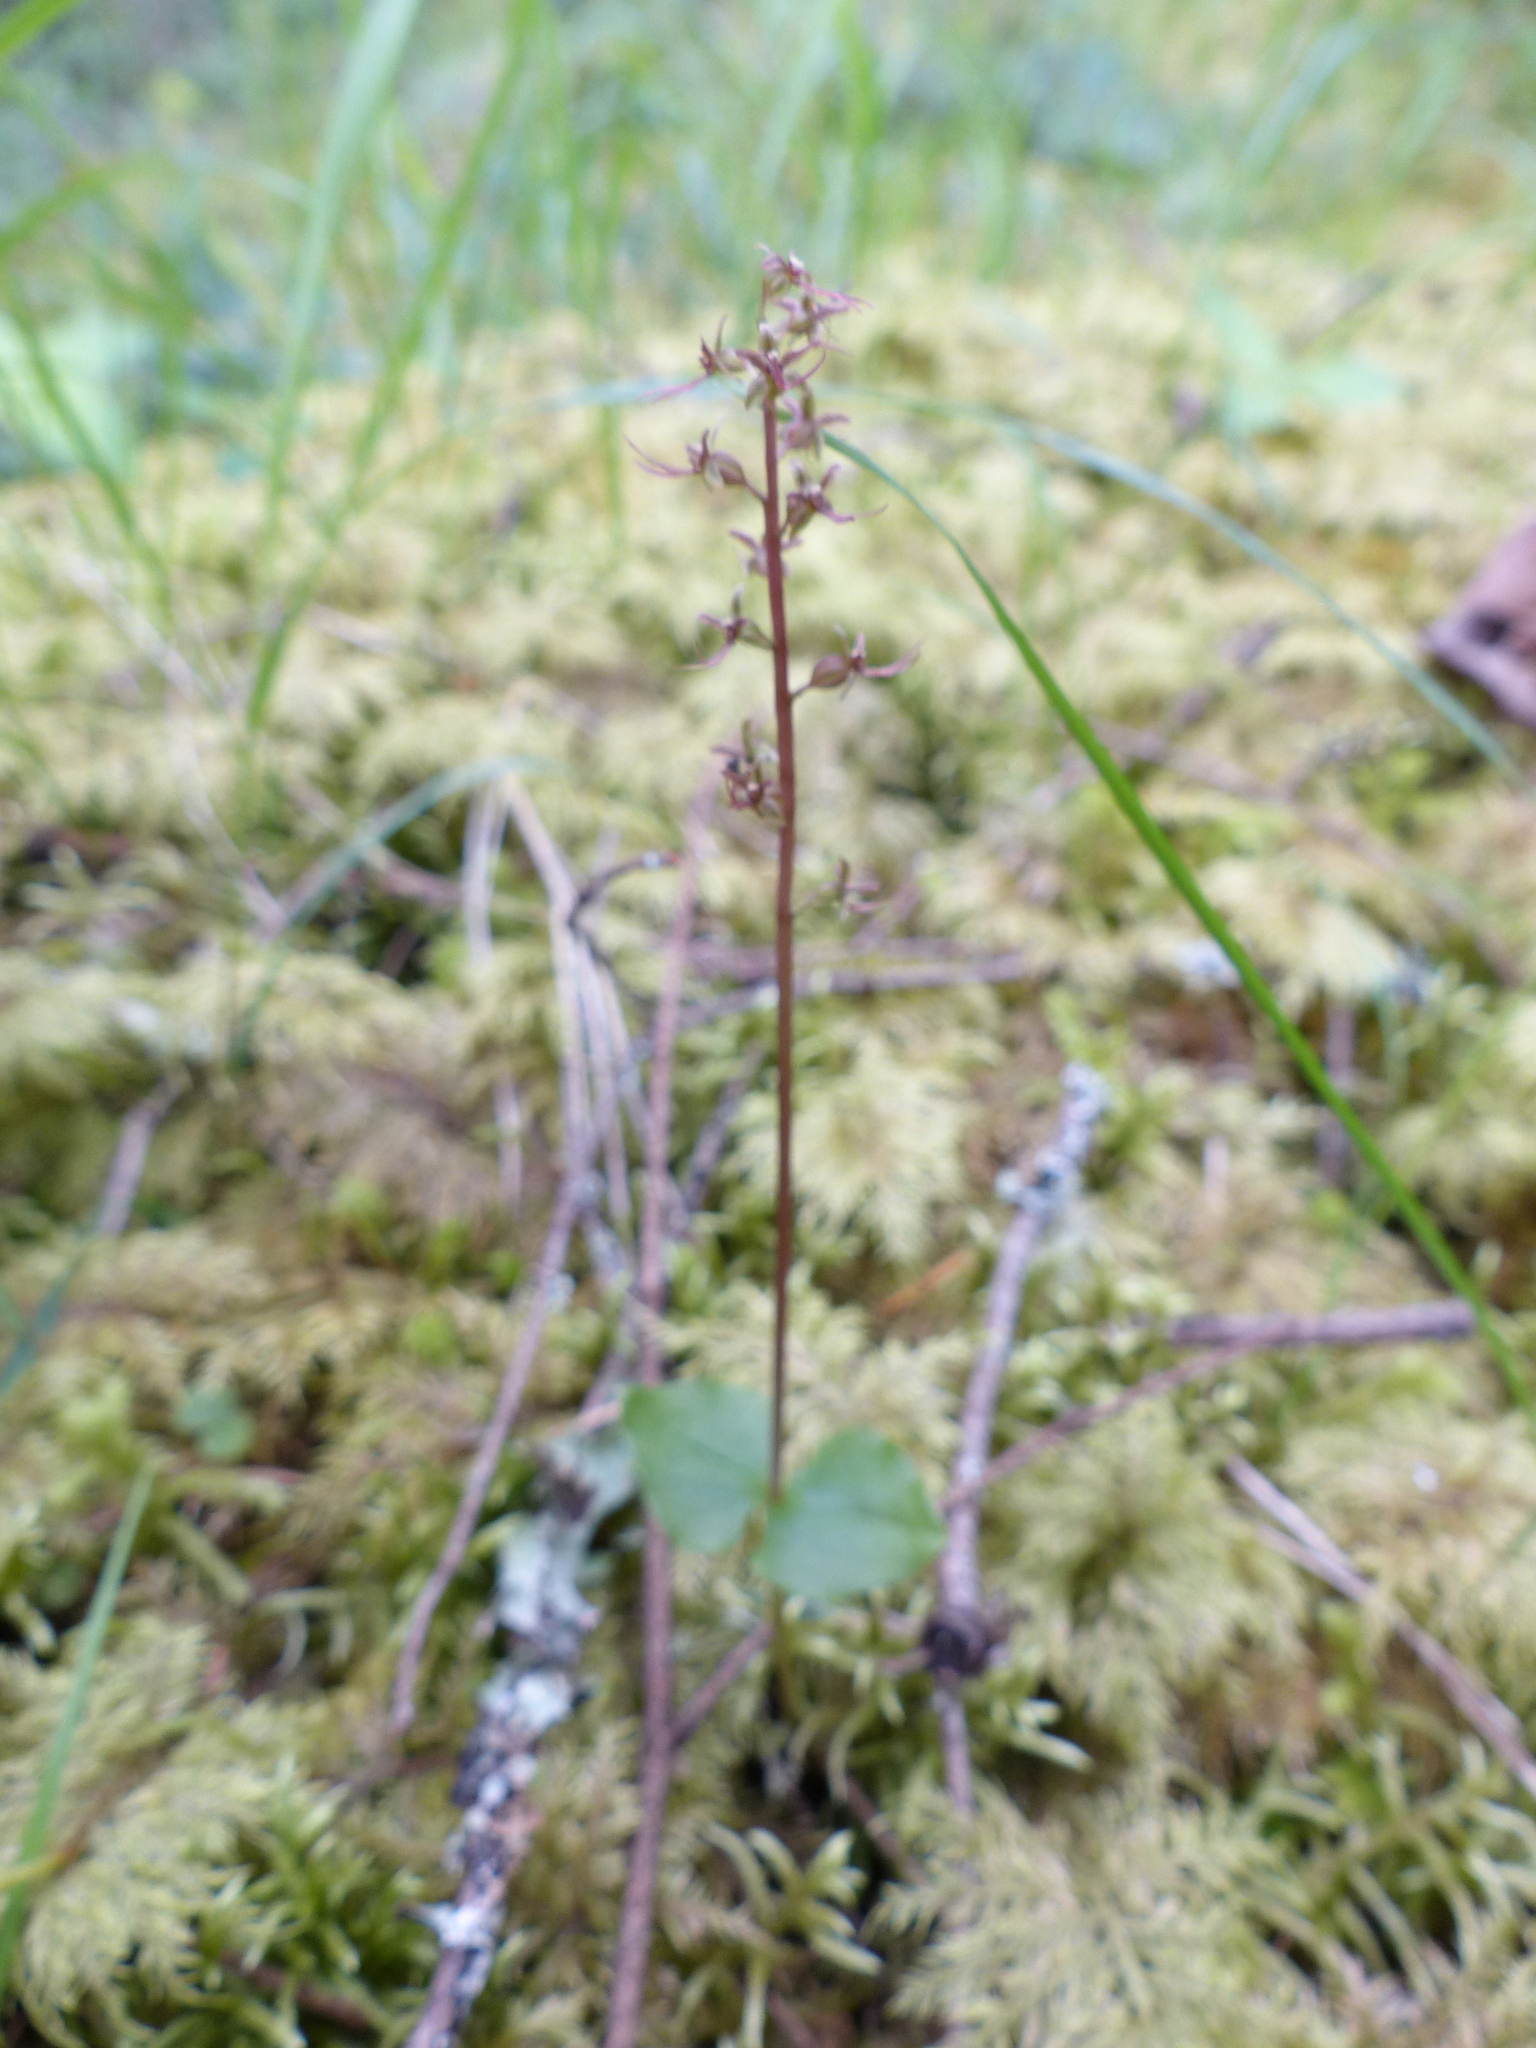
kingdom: Plantae
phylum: Tracheophyta
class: Liliopsida
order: Asparagales
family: Orchidaceae
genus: Neottia
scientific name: Neottia cordata
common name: Lesser twayblade
